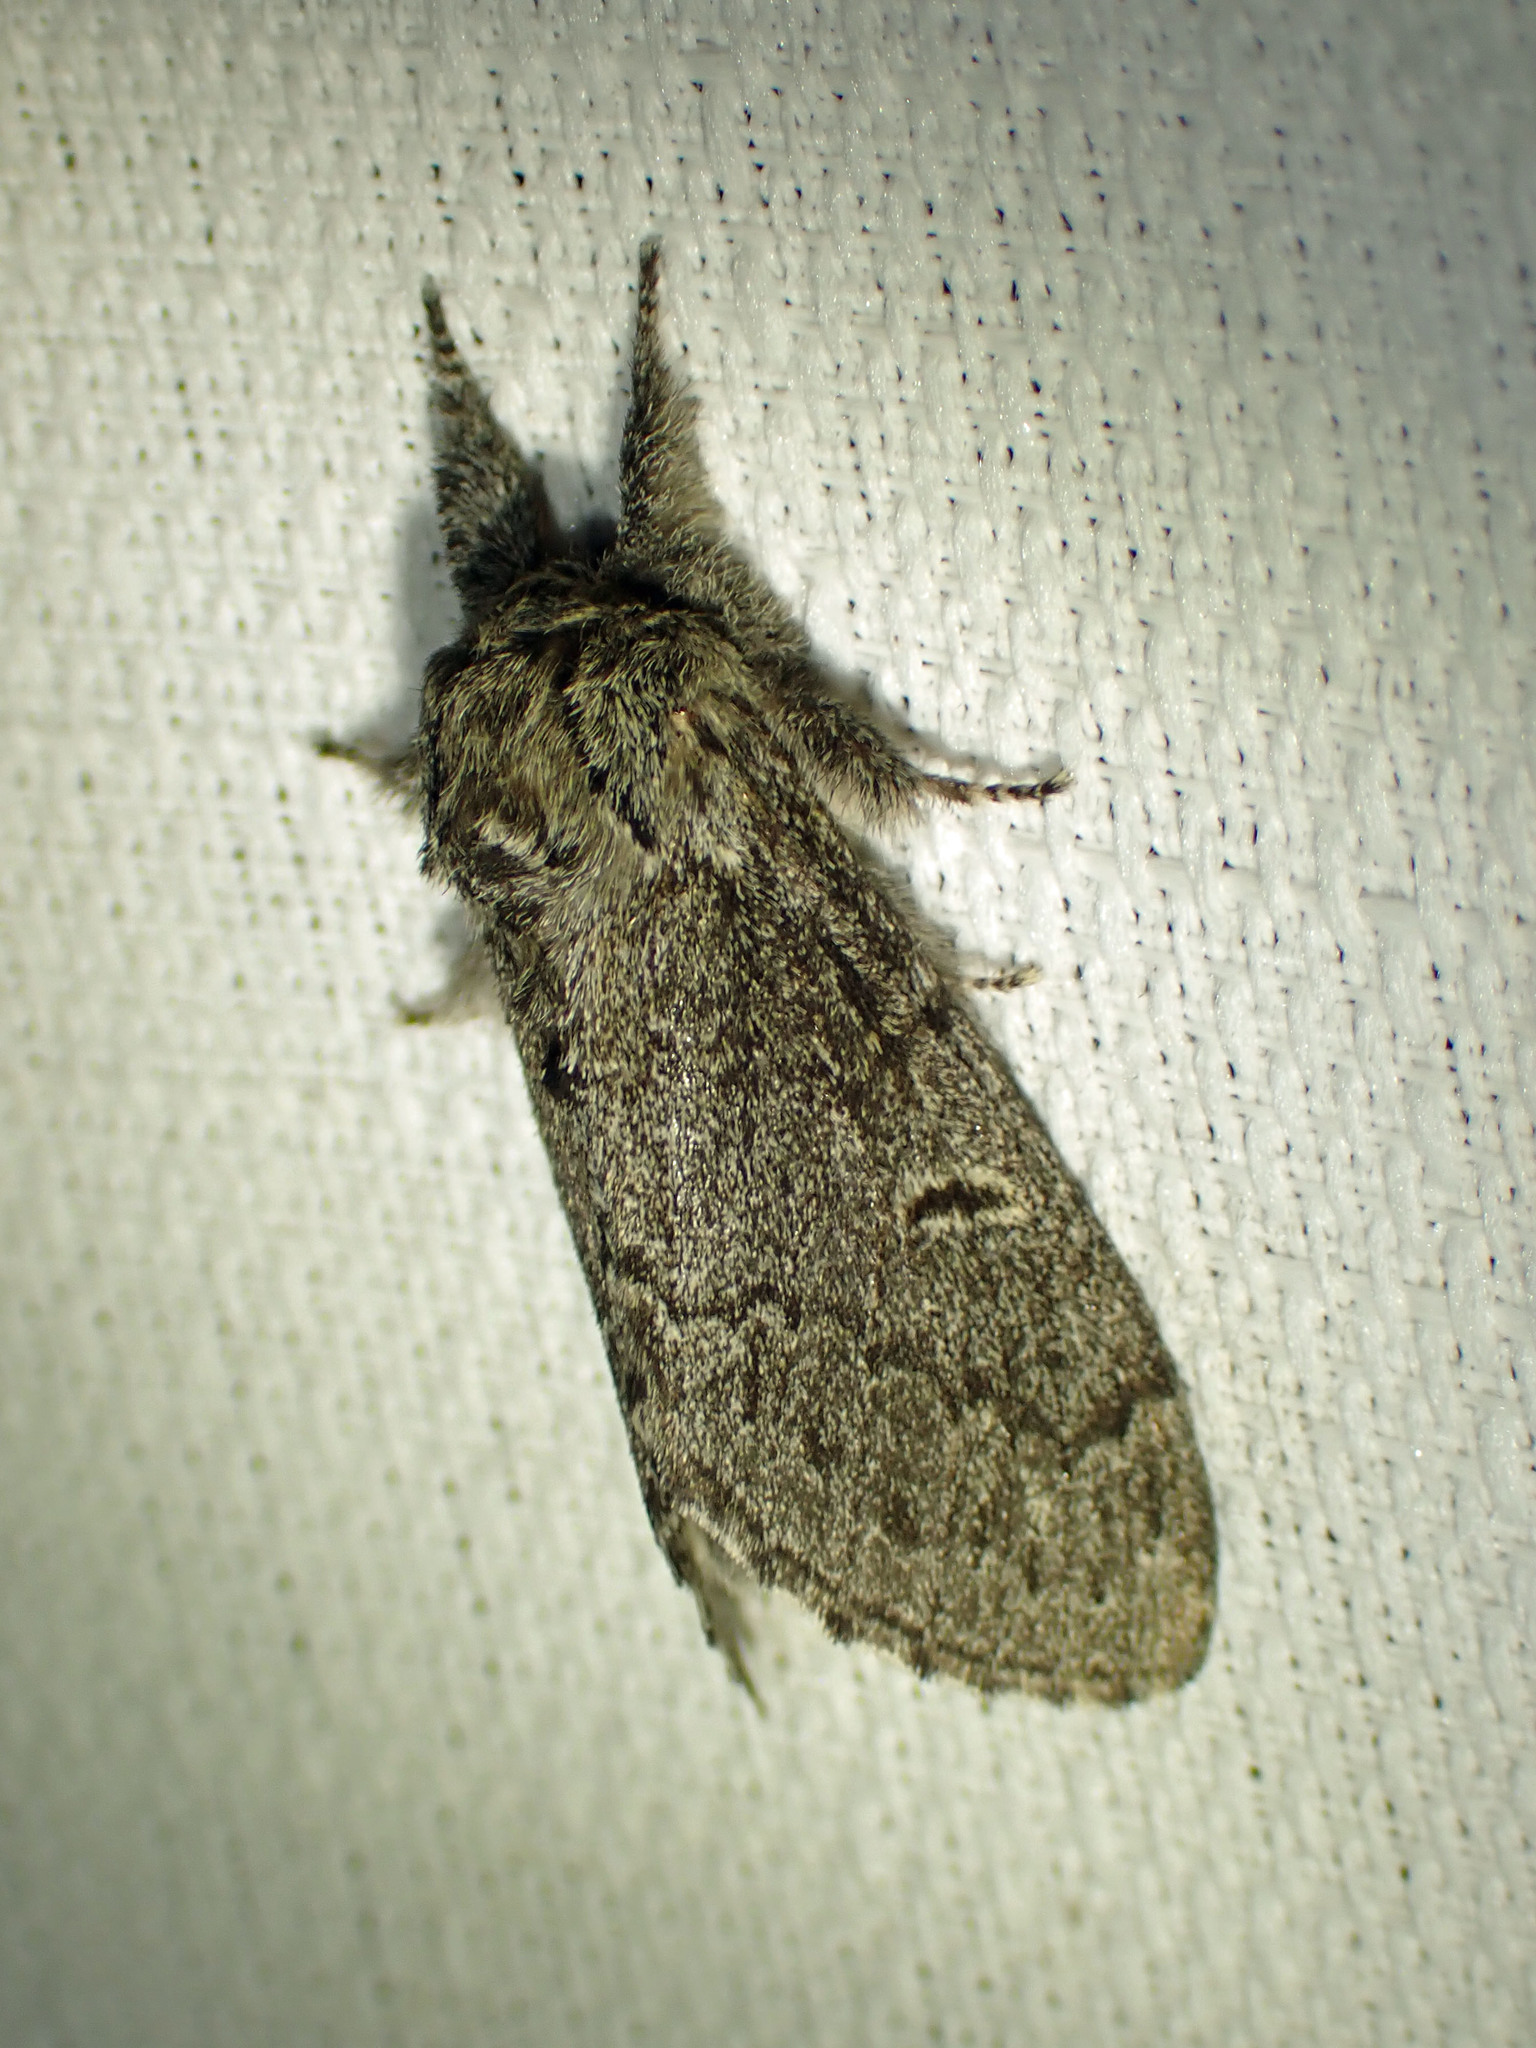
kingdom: Animalia
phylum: Arthropoda
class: Insecta
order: Lepidoptera
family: Notodontidae
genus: Notodonta
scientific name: Notodonta torva
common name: Large dark prominent
